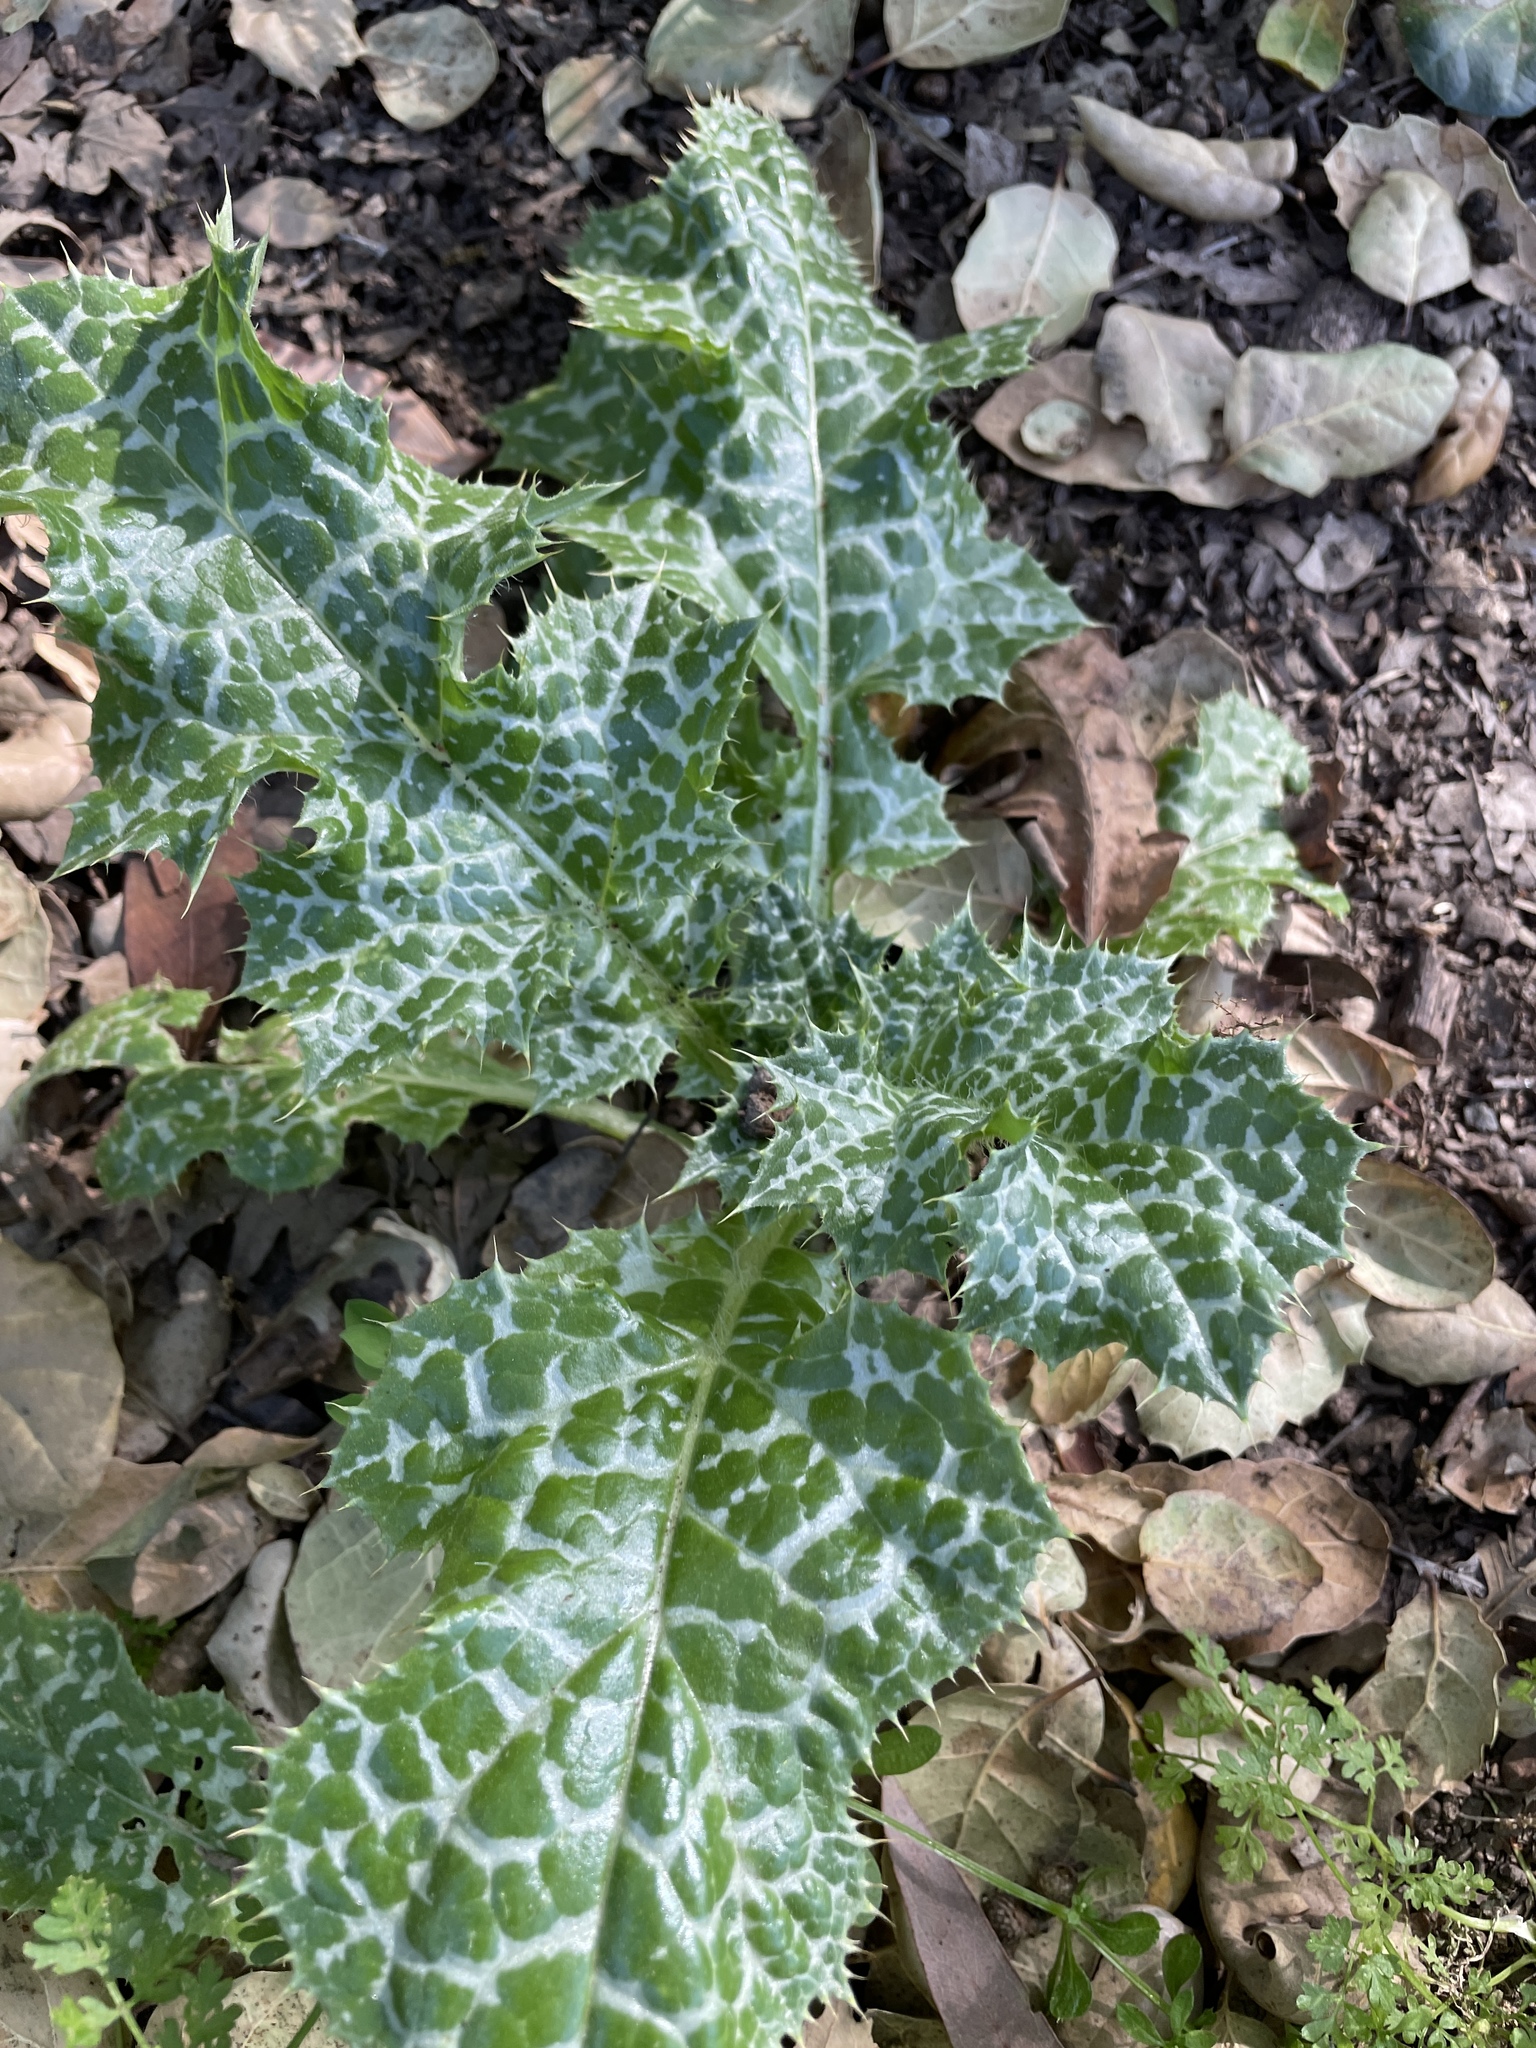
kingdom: Plantae
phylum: Tracheophyta
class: Magnoliopsida
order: Asterales
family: Asteraceae
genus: Silybum
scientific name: Silybum marianum
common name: Milk thistle
